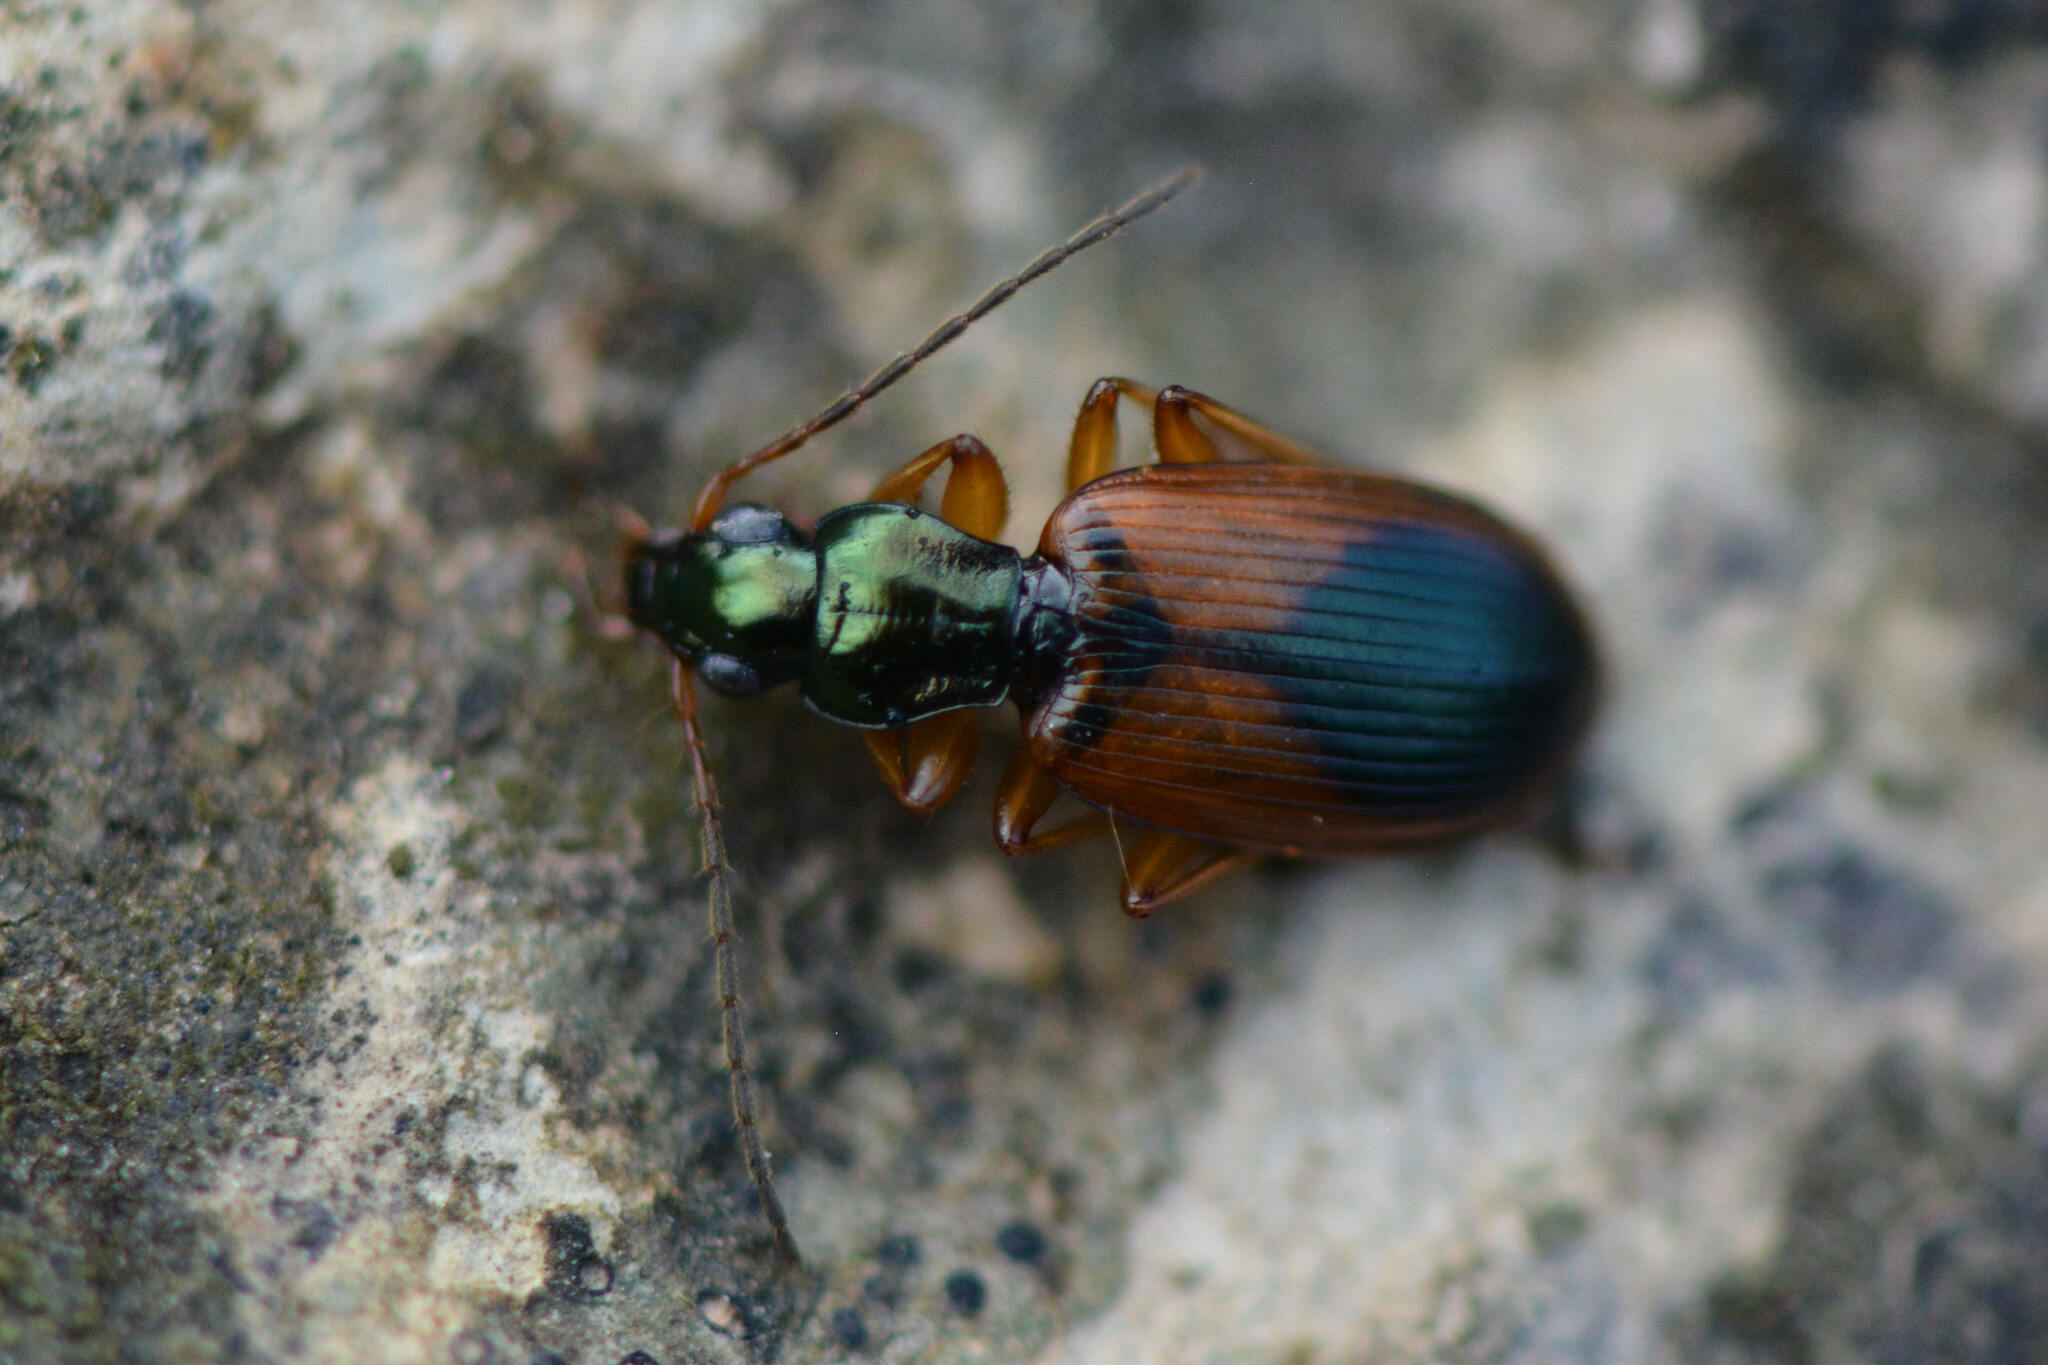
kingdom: Animalia
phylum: Arthropoda
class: Insecta
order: Coleoptera
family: Carabidae
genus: Anchomenus
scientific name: Anchomenus dorsalis
